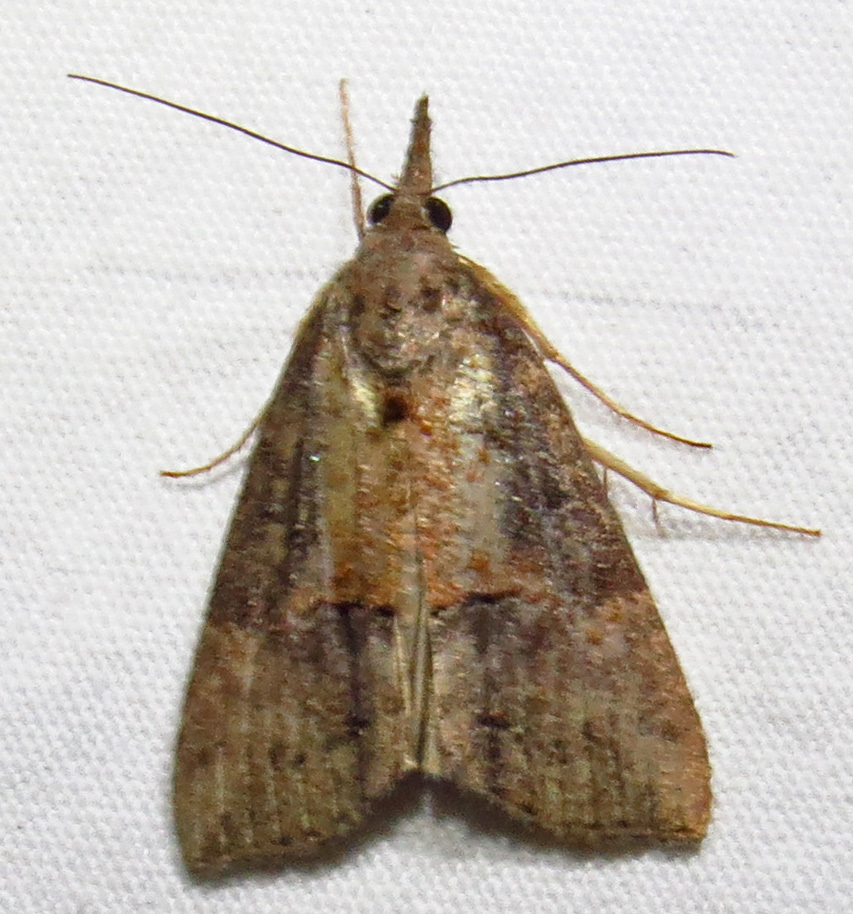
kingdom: Animalia
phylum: Arthropoda
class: Insecta
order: Lepidoptera
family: Erebidae
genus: Hypena
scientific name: Hypena scabra
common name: Green cloverworm
